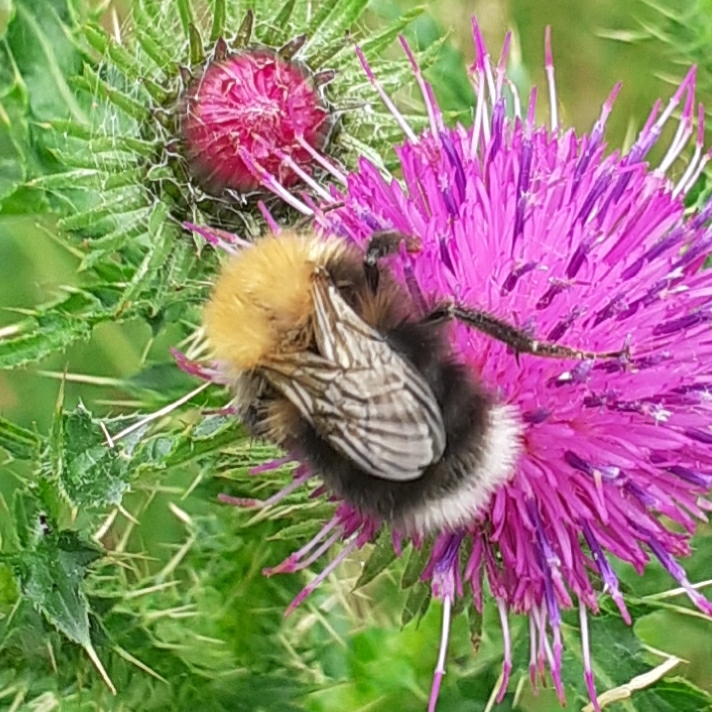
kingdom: Animalia
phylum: Arthropoda
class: Insecta
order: Hymenoptera
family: Apidae
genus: Bombus
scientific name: Bombus hypnorum
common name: New garden bumblebee
